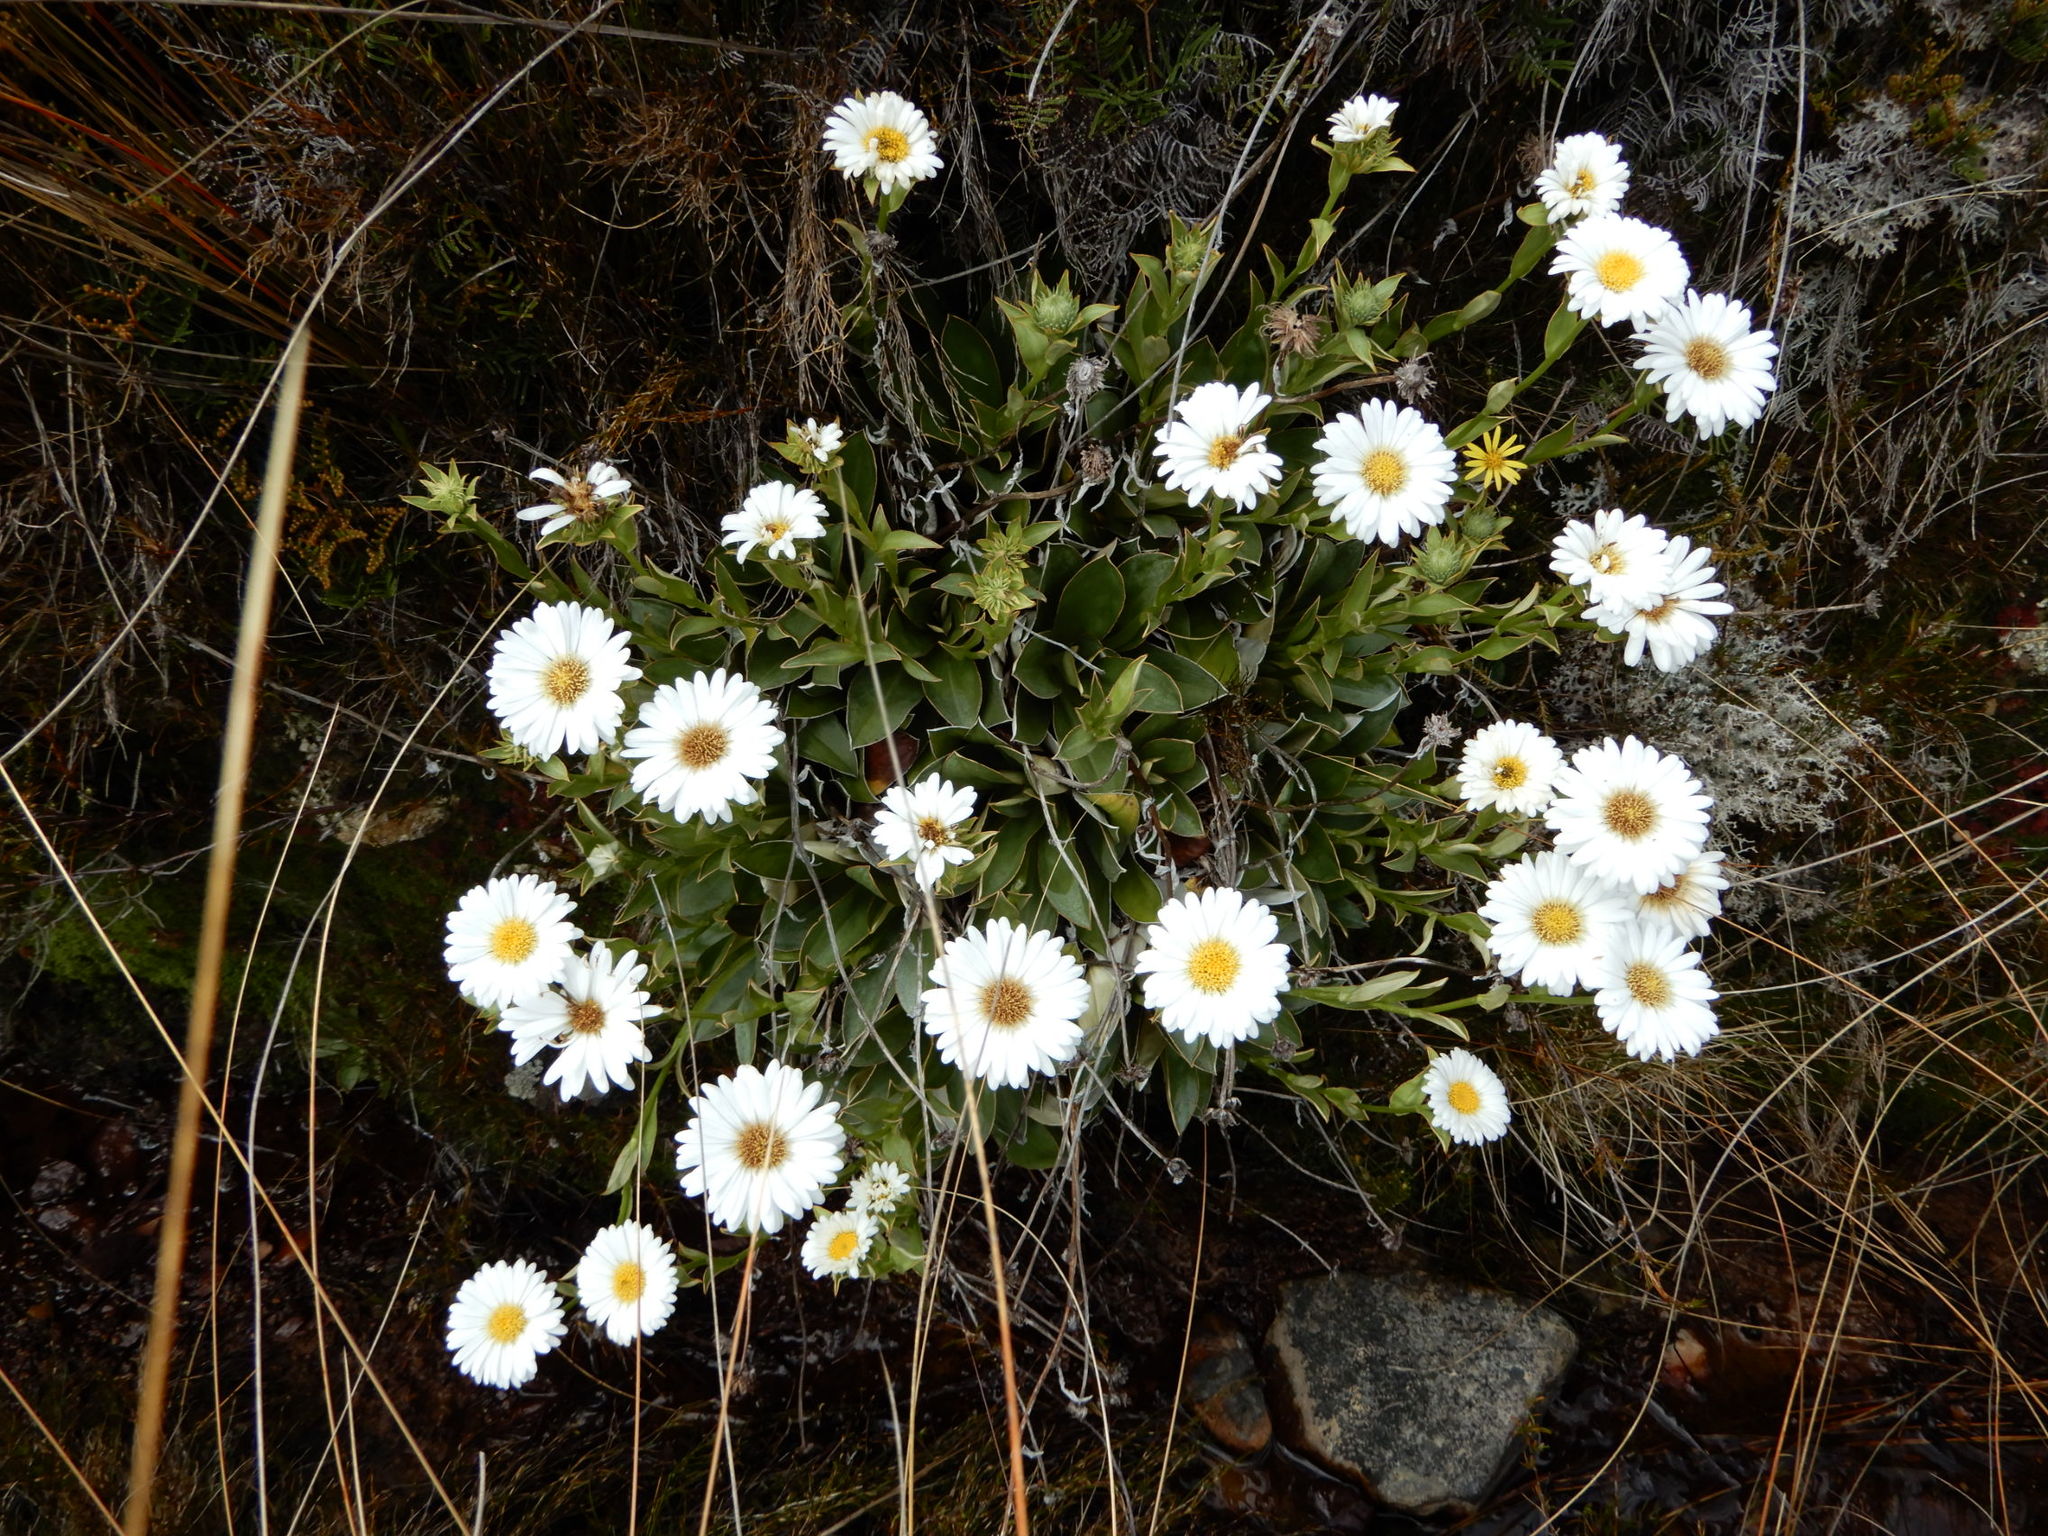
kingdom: Plantae
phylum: Tracheophyta
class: Magnoliopsida
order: Asterales
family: Asteraceae
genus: Celmisia
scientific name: Celmisia dallii
